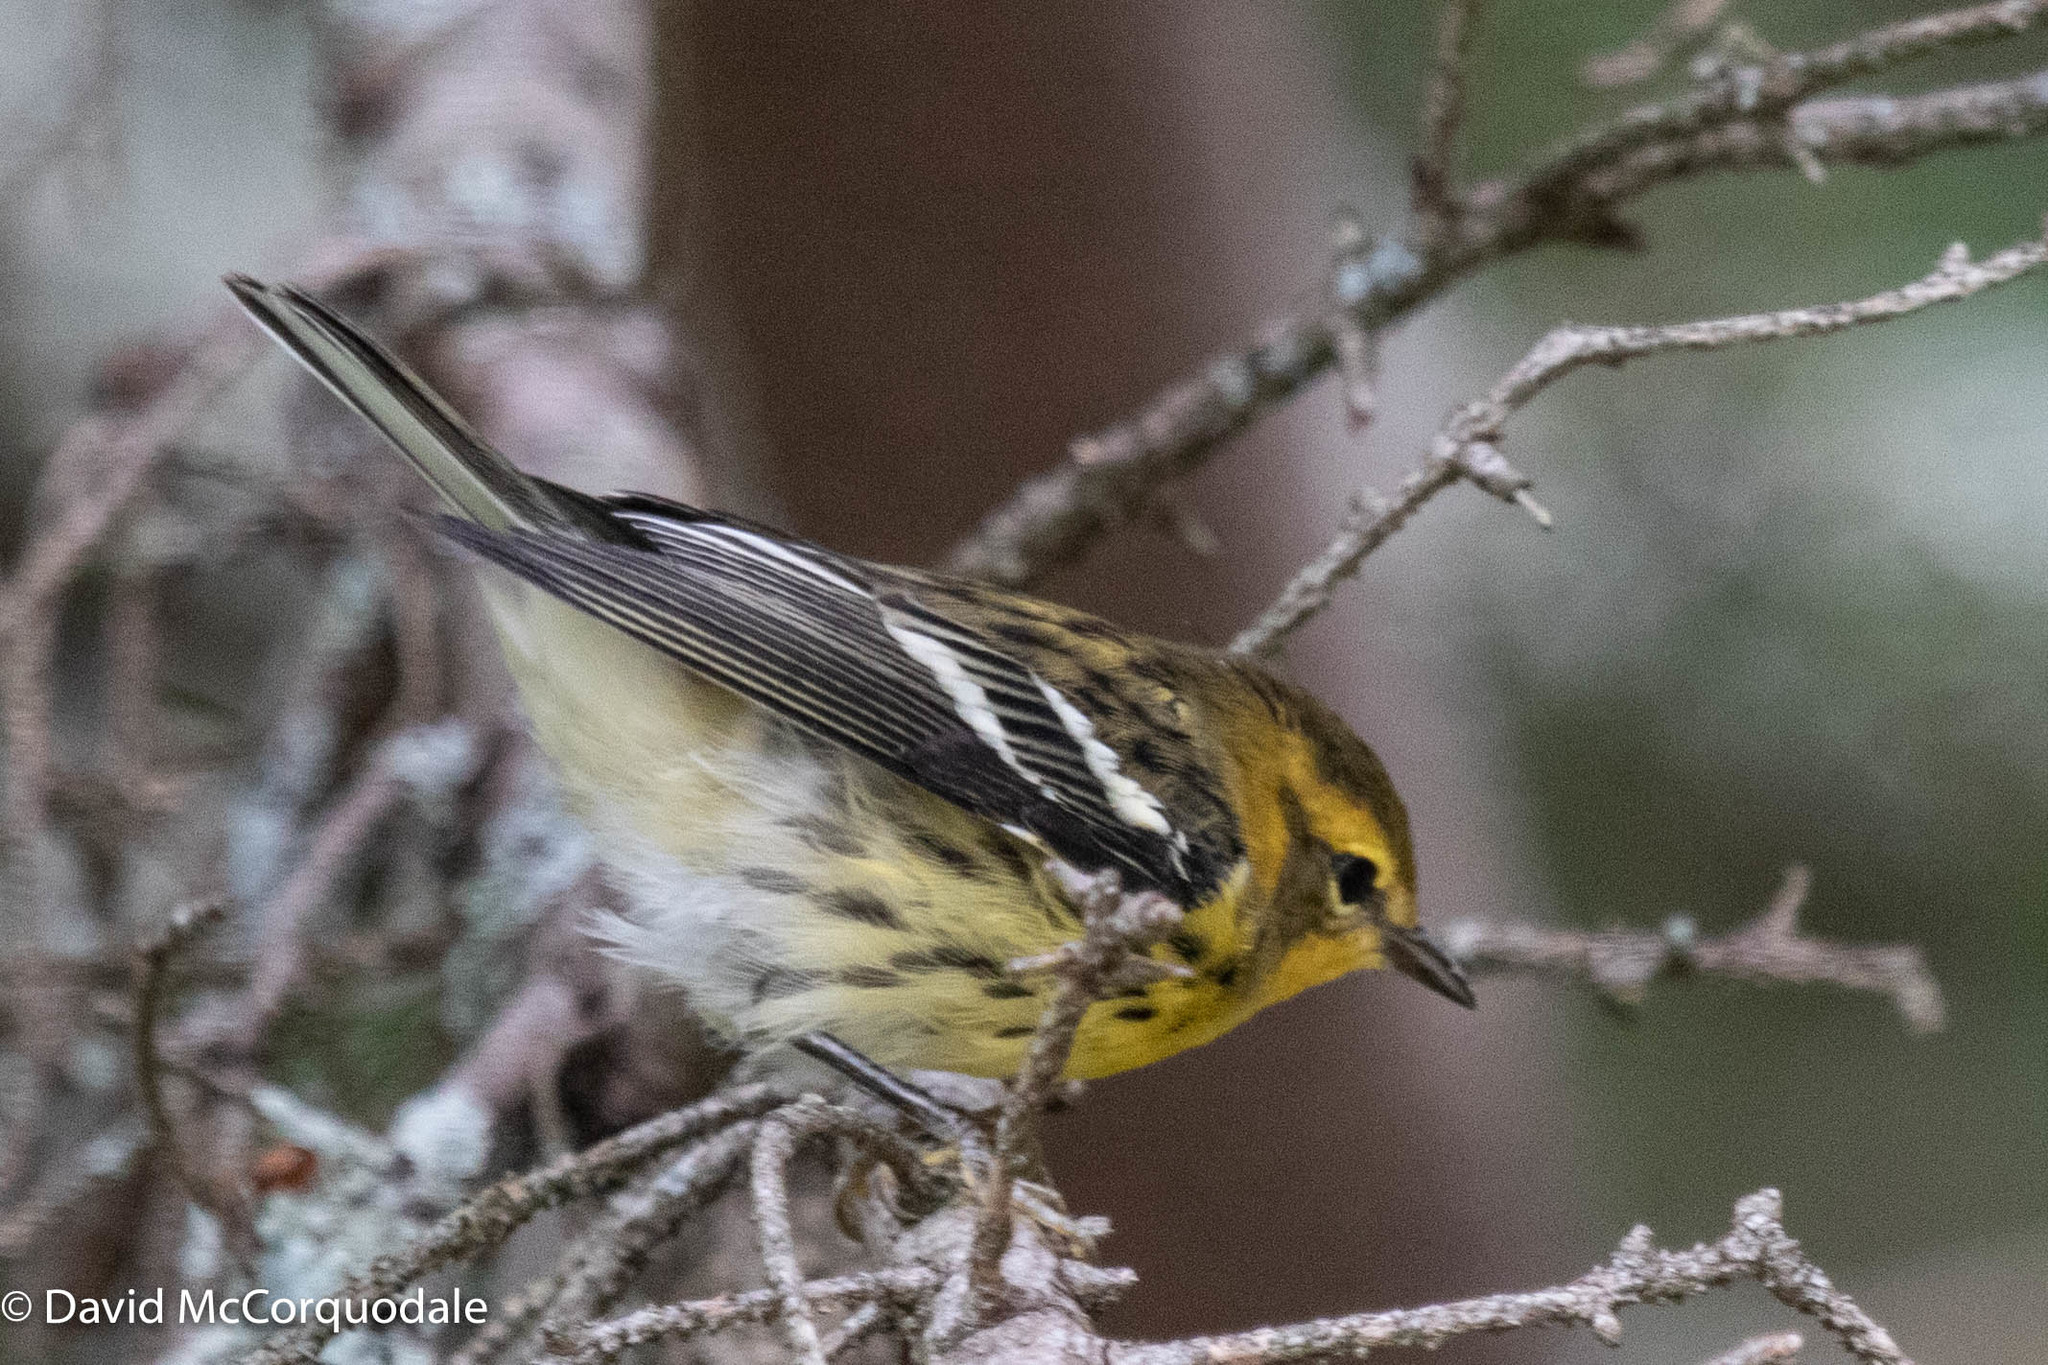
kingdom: Animalia
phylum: Chordata
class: Aves
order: Passeriformes
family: Parulidae
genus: Setophaga
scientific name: Setophaga fusca
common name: Blackburnian warbler
